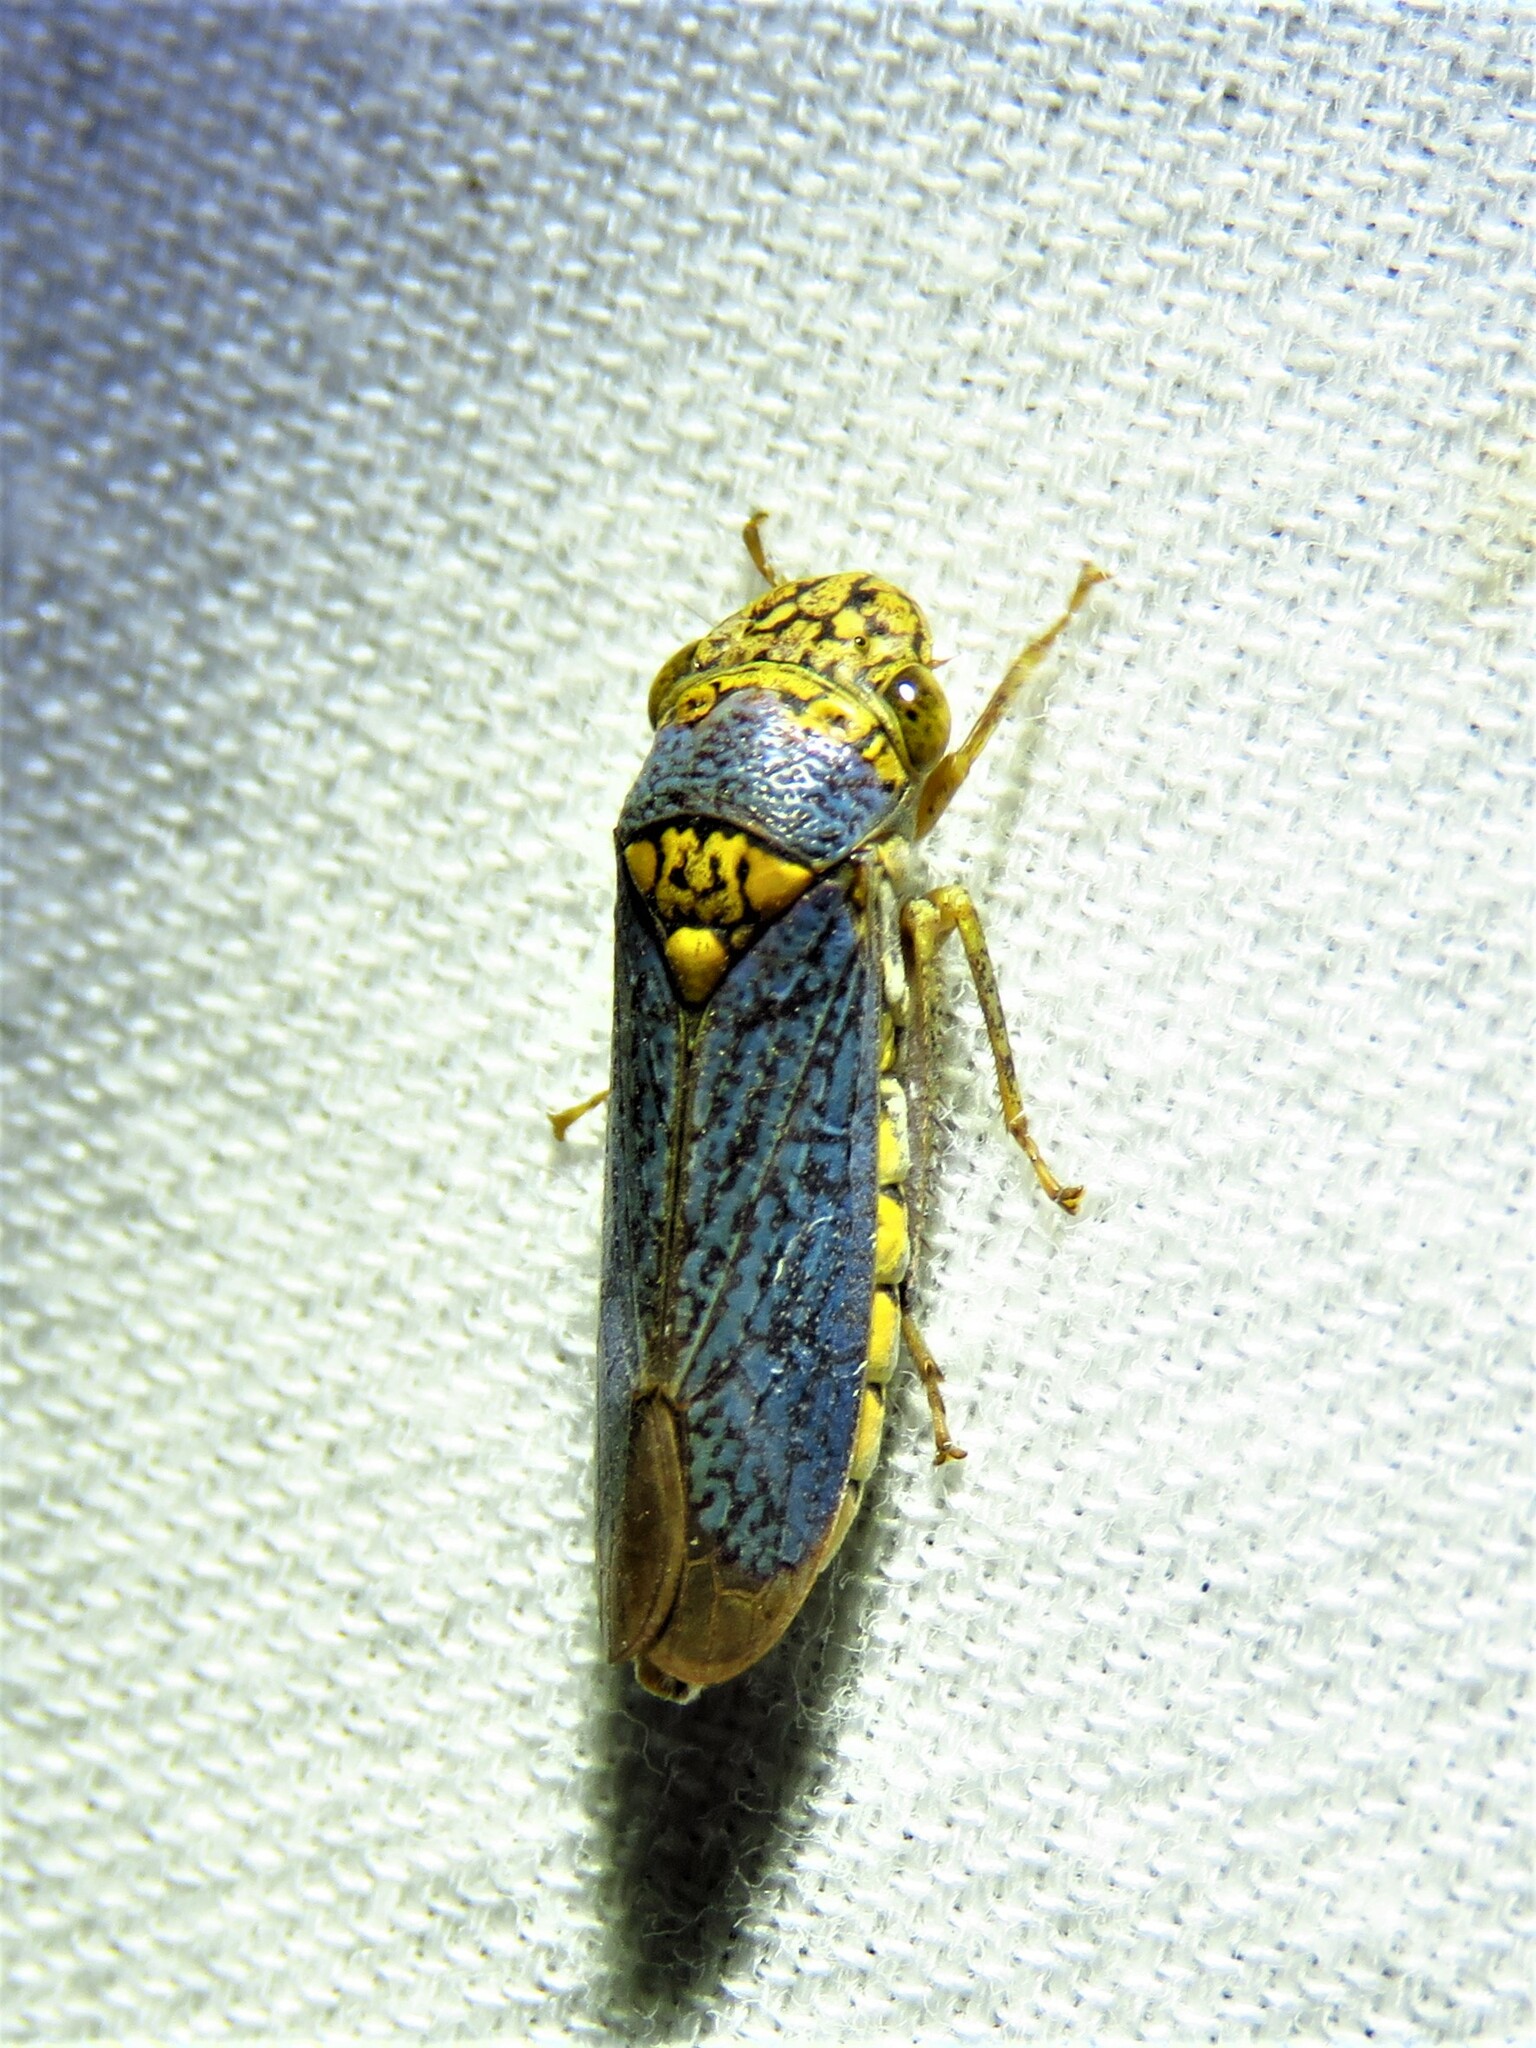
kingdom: Animalia
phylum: Arthropoda
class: Insecta
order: Hemiptera
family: Cicadellidae
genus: Oncometopia
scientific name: Oncometopia orbona
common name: Broad-headed sharpshooter
